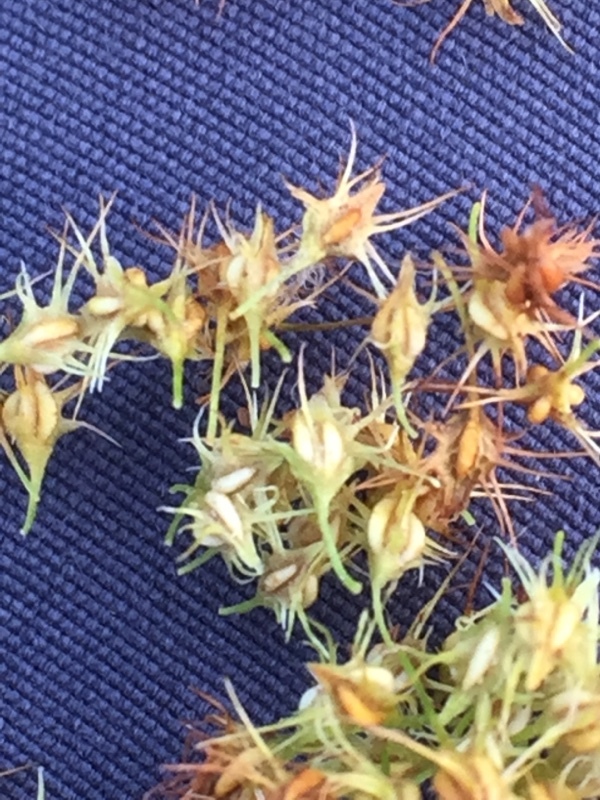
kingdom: Plantae
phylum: Tracheophyta
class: Magnoliopsida
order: Caryophyllales
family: Polygonaceae
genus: Rumex
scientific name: Rumex maritimus
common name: Golden dock
